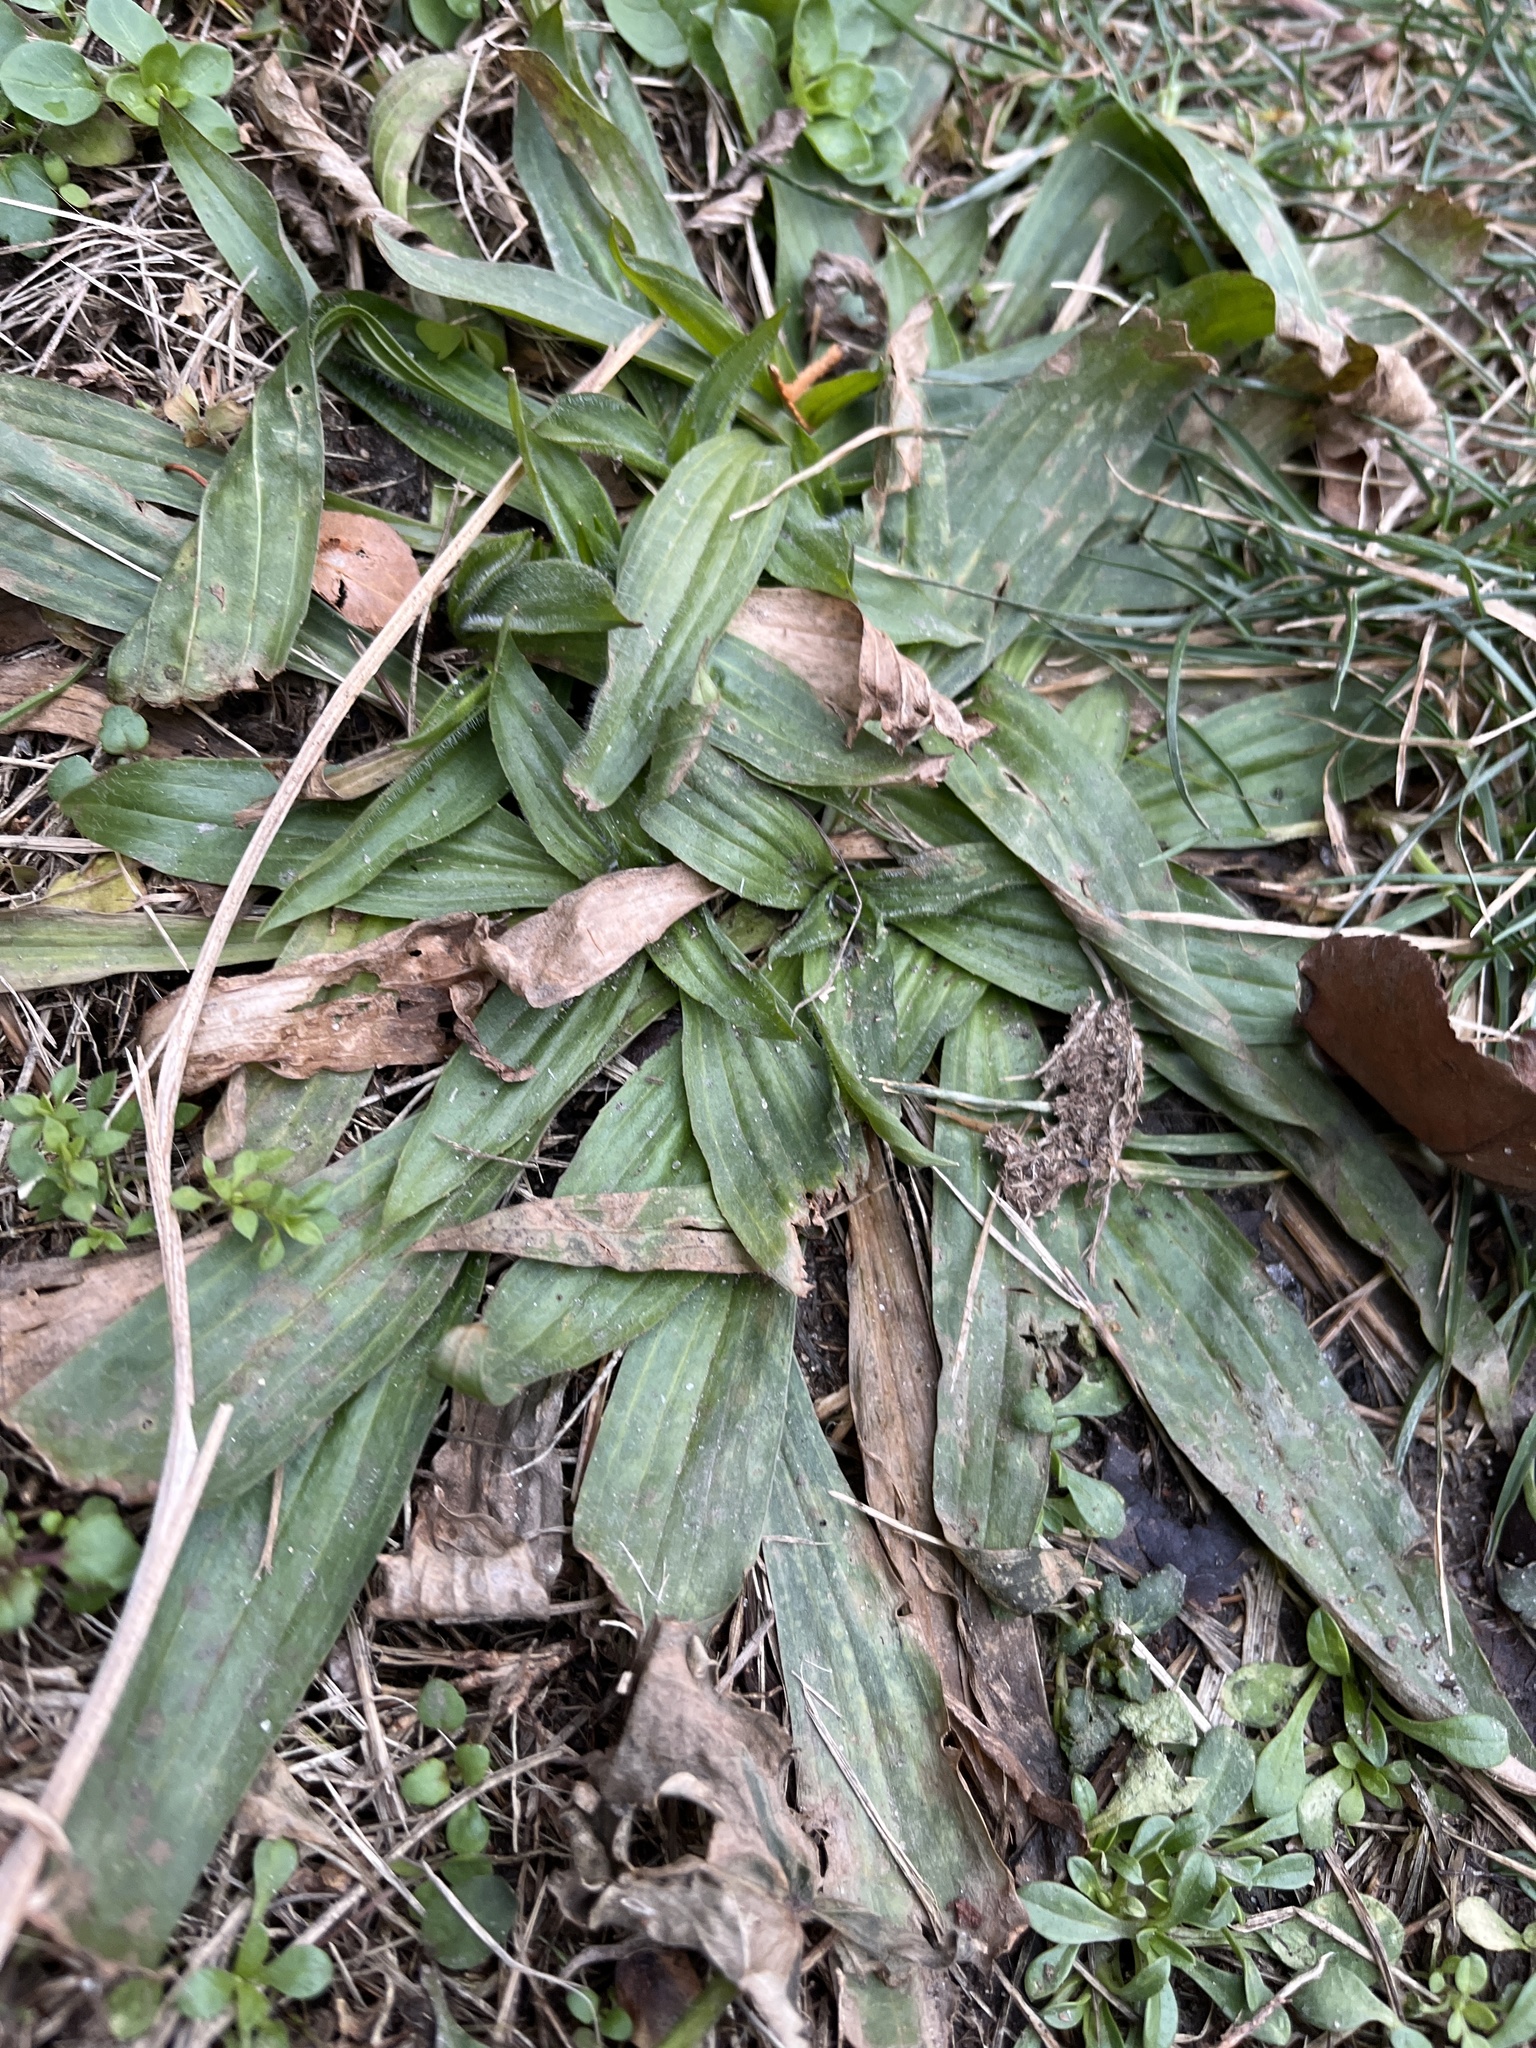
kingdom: Plantae
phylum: Tracheophyta
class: Magnoliopsida
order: Lamiales
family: Plantaginaceae
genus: Plantago
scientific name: Plantago lanceolata
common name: Ribwort plantain
